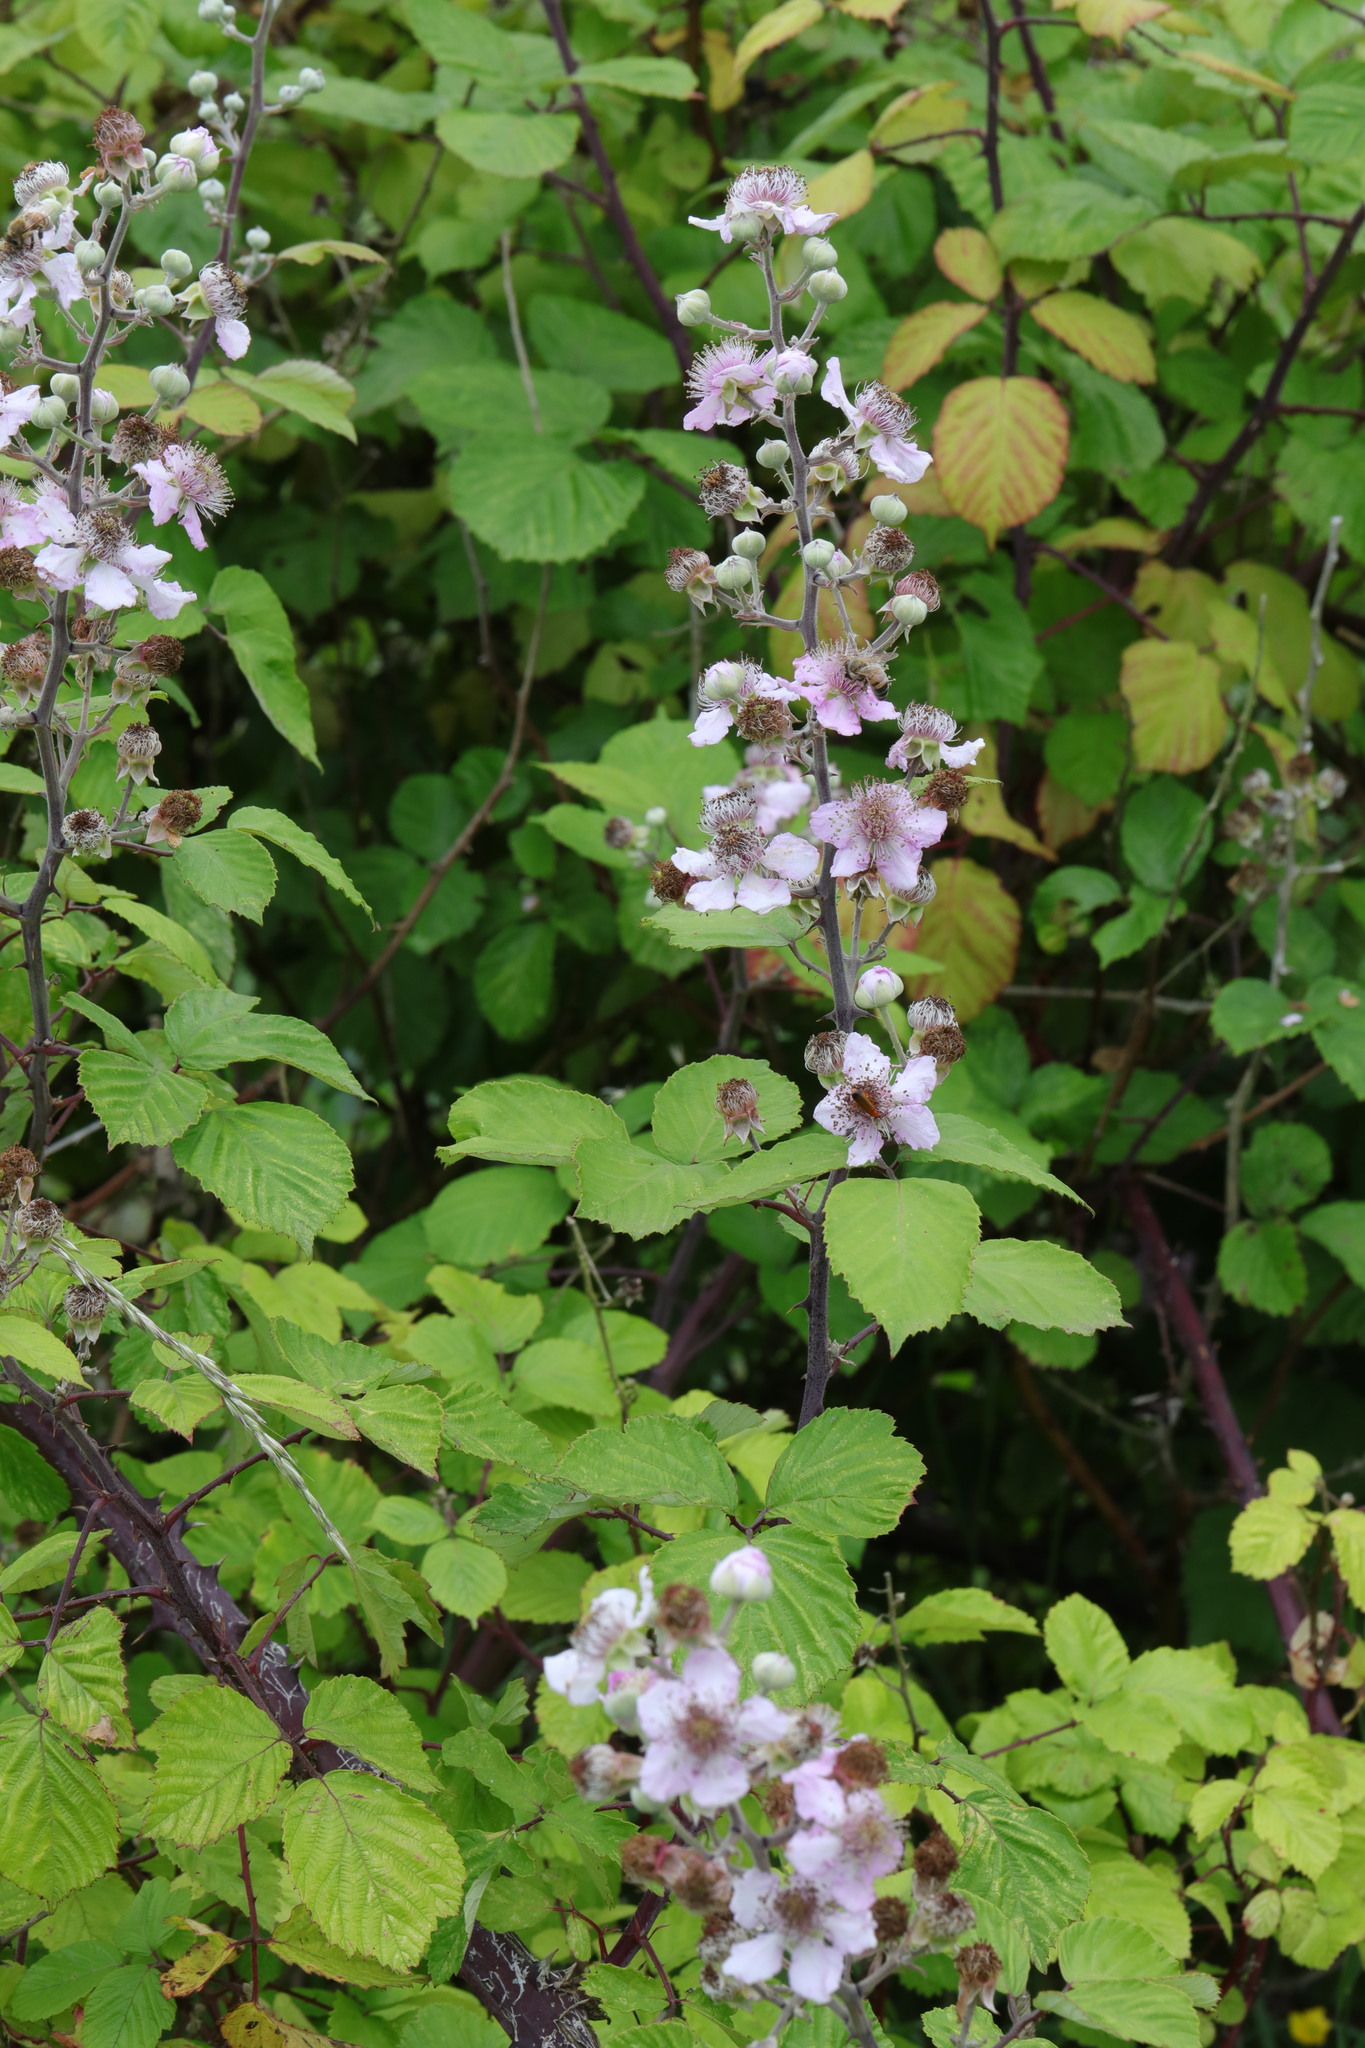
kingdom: Plantae
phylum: Tracheophyta
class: Magnoliopsida
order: Rosales
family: Rosaceae
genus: Rubus
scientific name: Rubus ulmifolius
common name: Elmleaf blackberry
